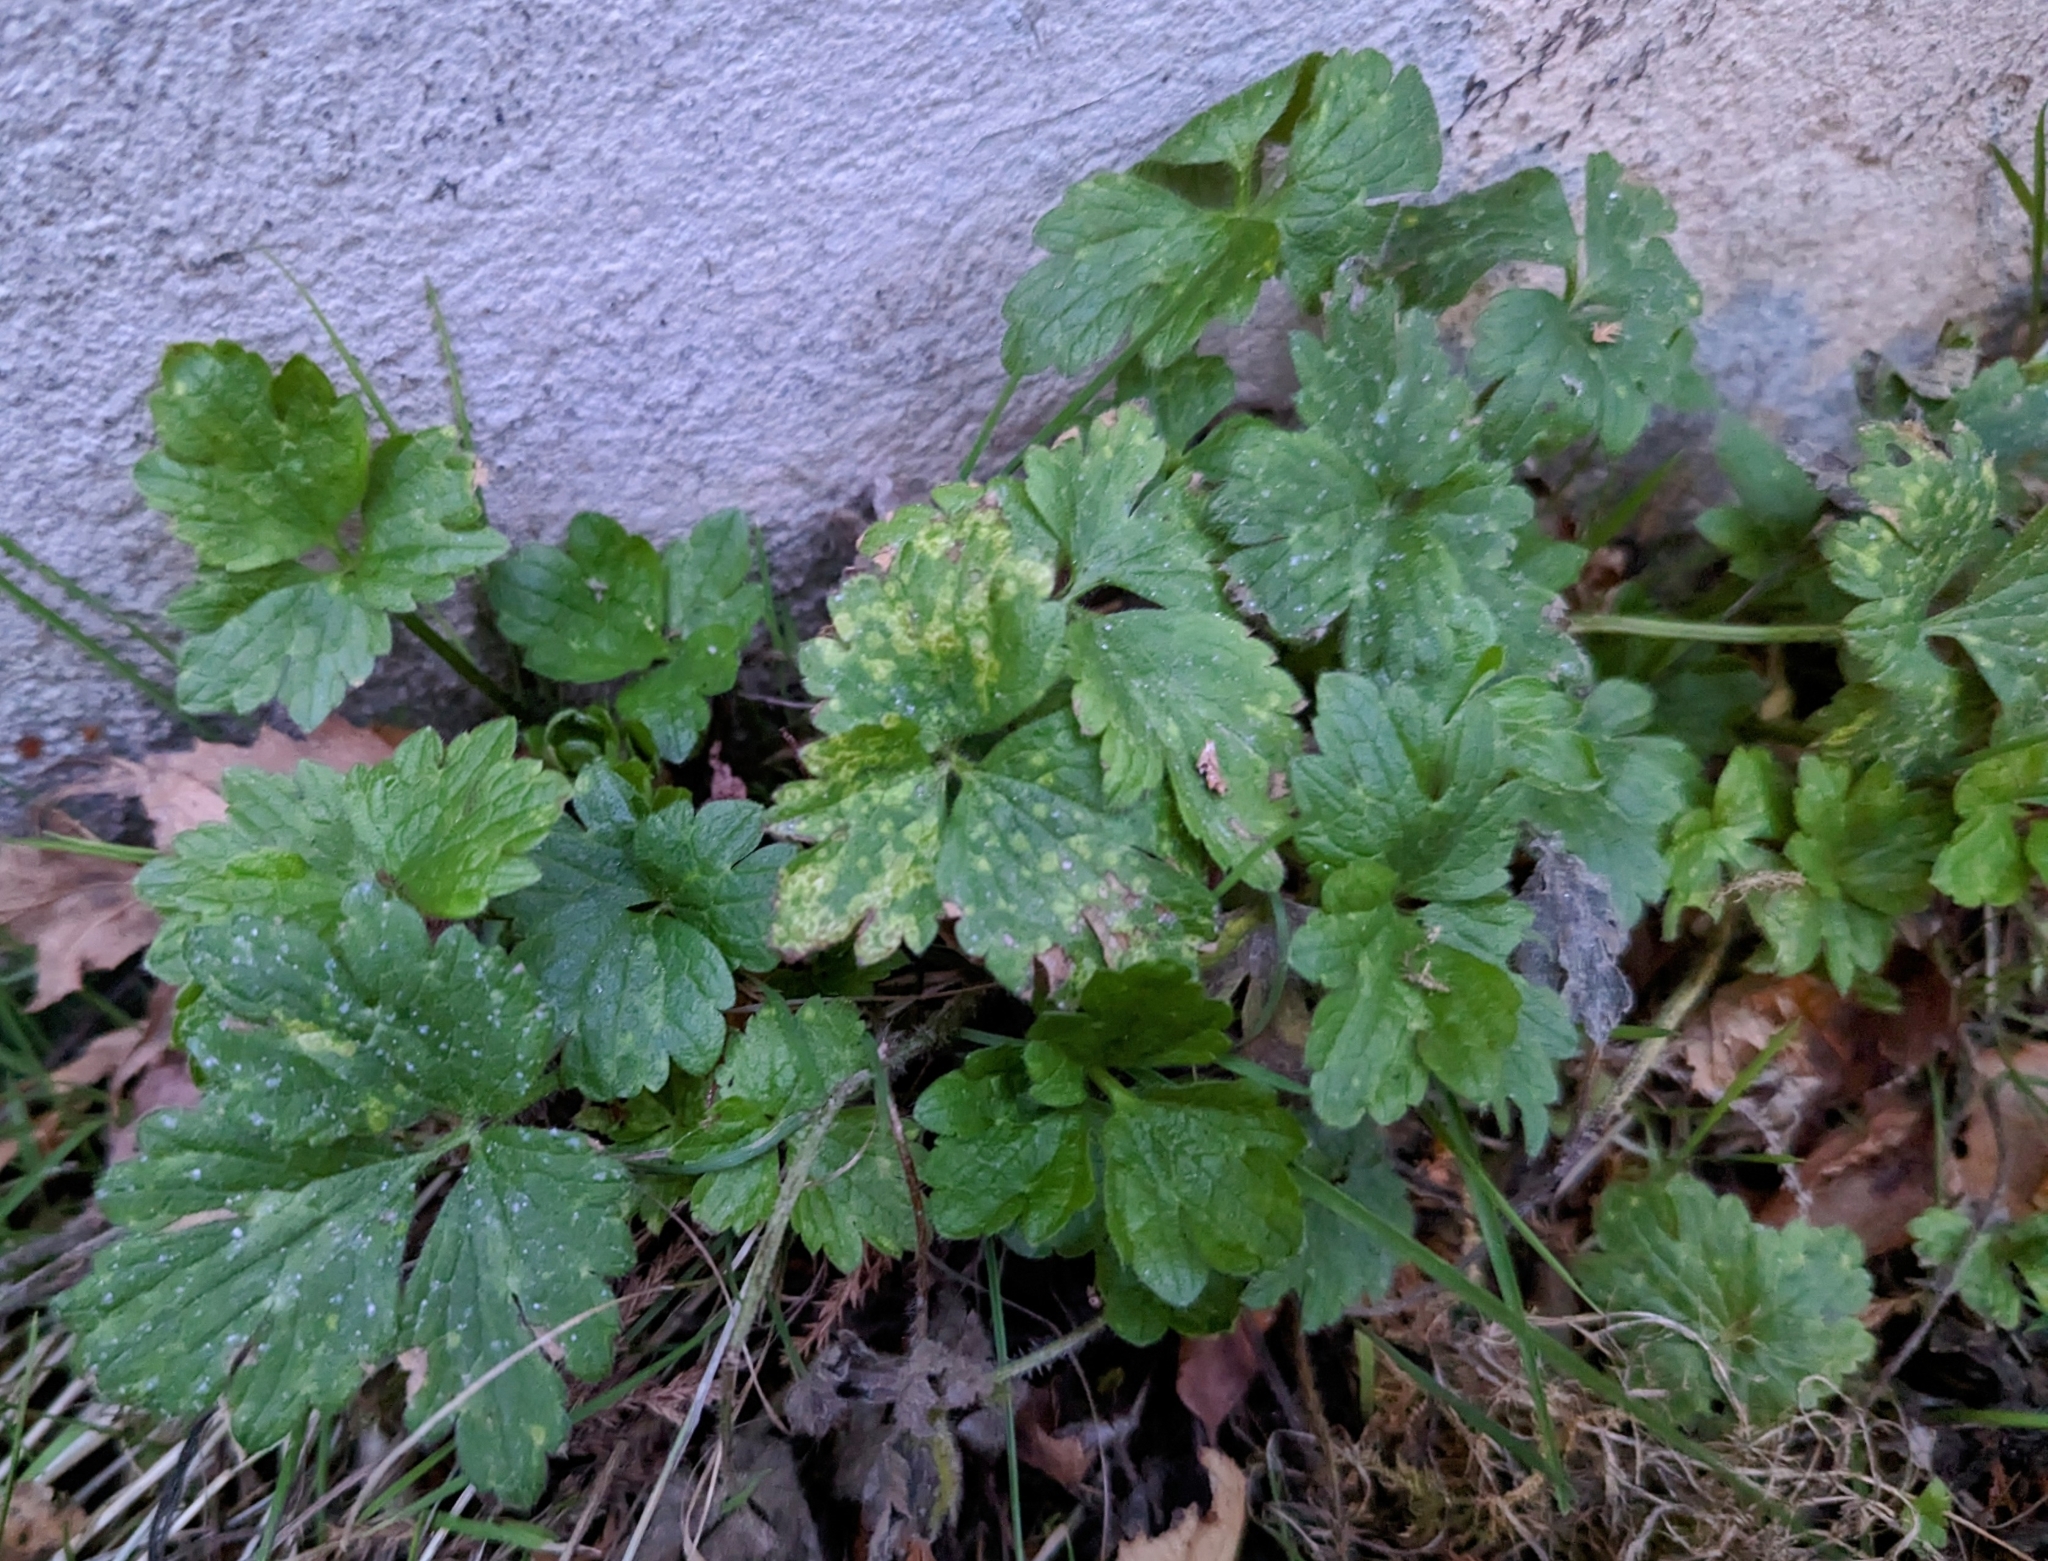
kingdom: Plantae
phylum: Tracheophyta
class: Magnoliopsida
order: Ranunculales
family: Ranunculaceae
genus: Ranunculus
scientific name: Ranunculus repens
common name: Creeping buttercup
